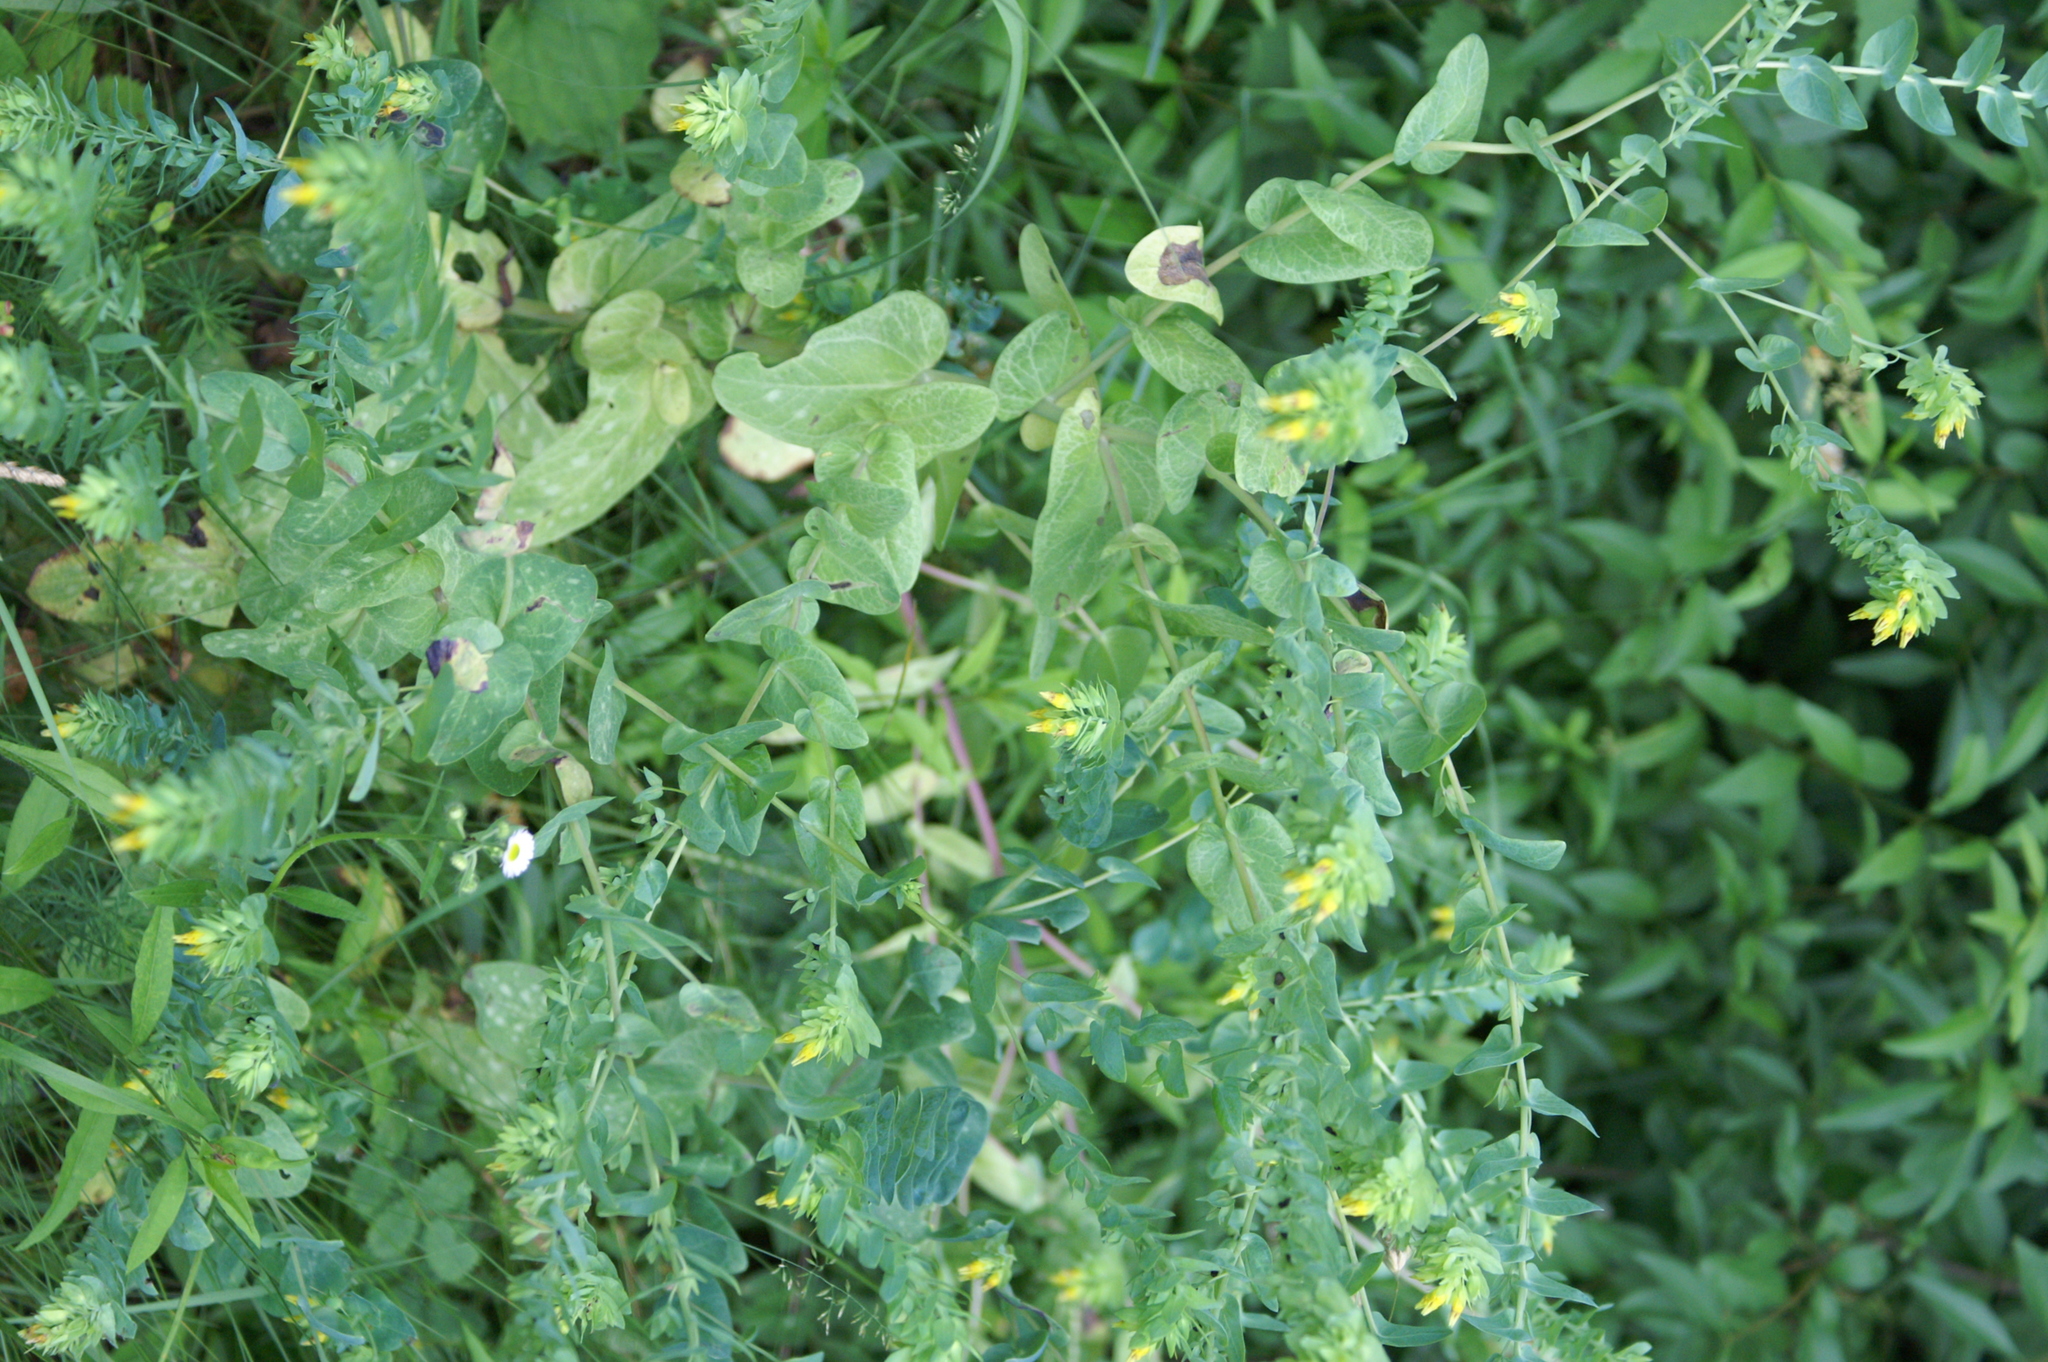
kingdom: Plantae
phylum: Tracheophyta
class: Magnoliopsida
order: Boraginales
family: Boraginaceae
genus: Cerinthe
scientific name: Cerinthe minor
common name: Lesser honeywort
